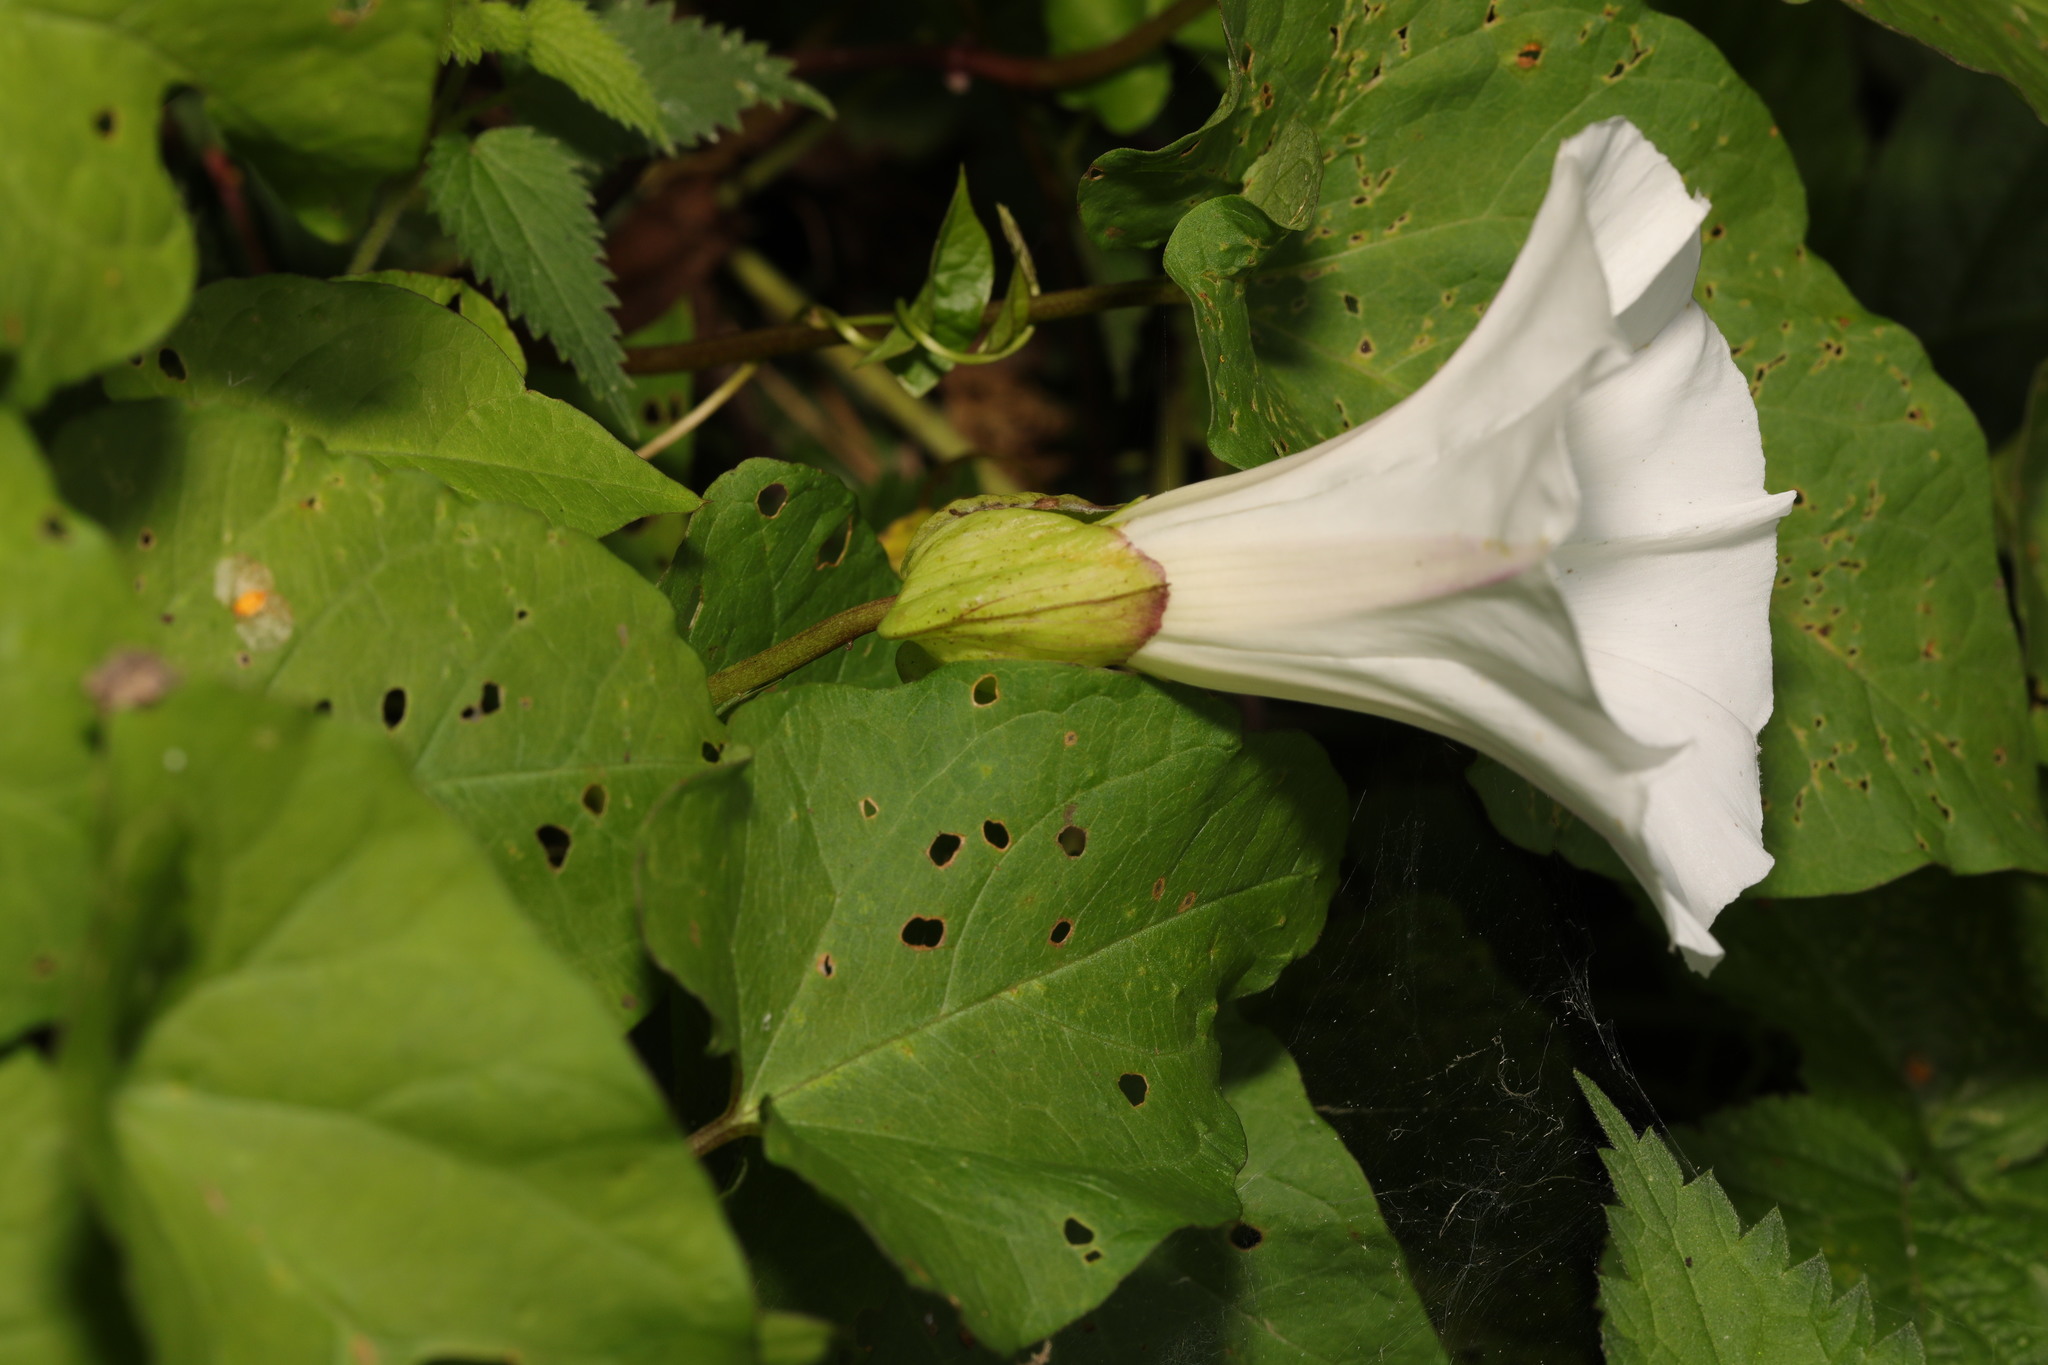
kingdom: Plantae
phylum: Tracheophyta
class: Magnoliopsida
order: Solanales
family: Convolvulaceae
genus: Calystegia
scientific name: Calystegia silvatica
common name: Large bindweed
